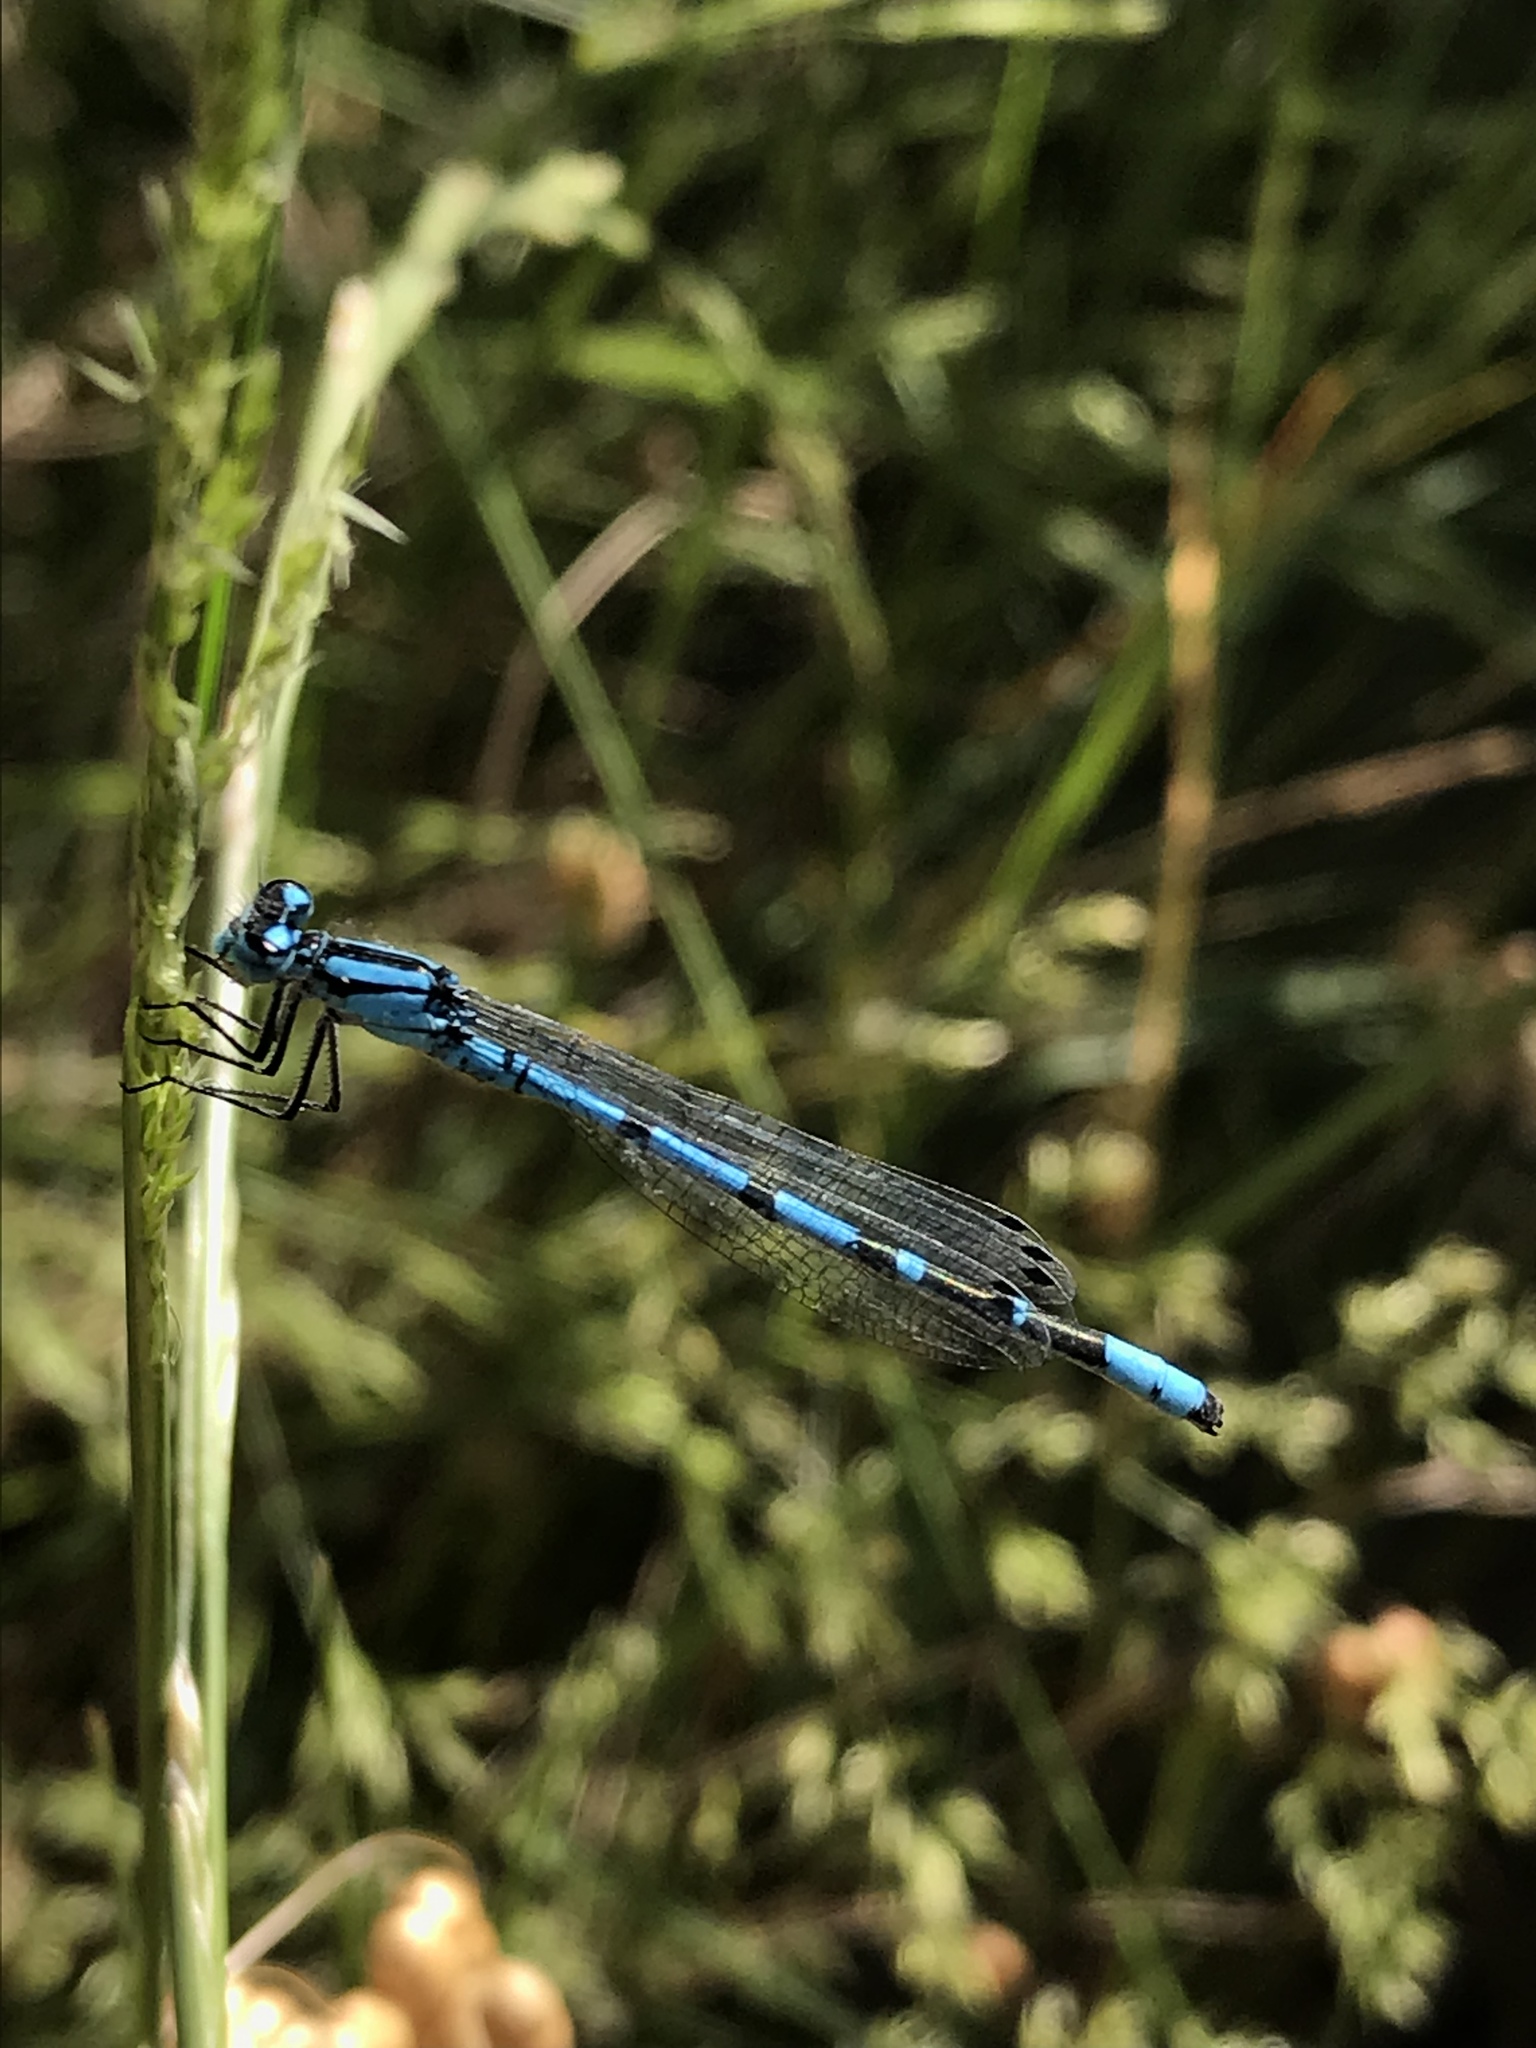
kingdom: Animalia
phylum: Arthropoda
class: Insecta
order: Odonata
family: Coenagrionidae
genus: Enallagma
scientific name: Enallagma boreale
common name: Boreal bluet
